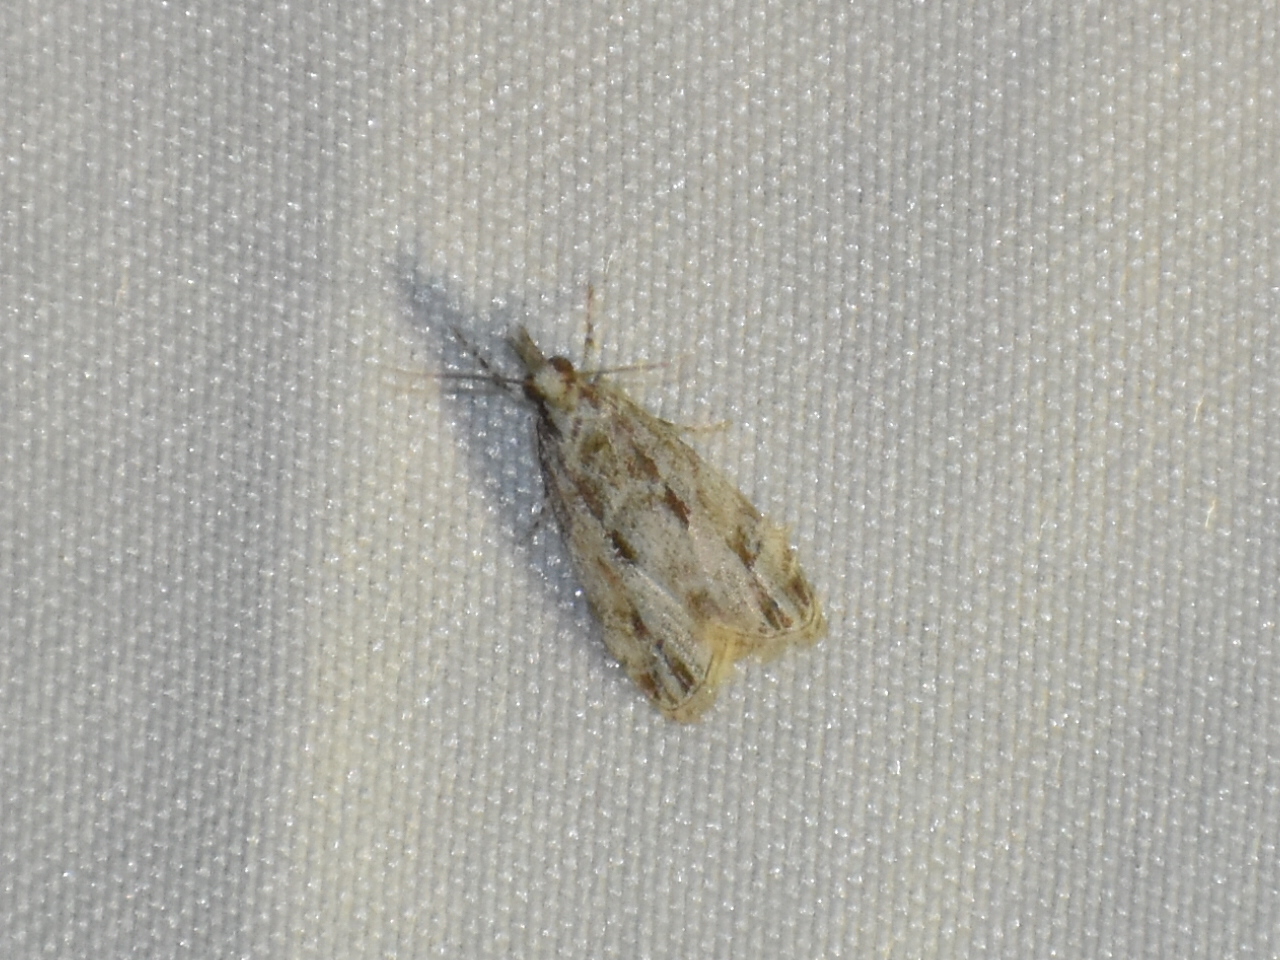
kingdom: Animalia
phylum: Arthropoda
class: Insecta
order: Lepidoptera
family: Crambidae
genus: Eudonia
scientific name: Eudonia strigalis
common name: Striped eudonia moth
